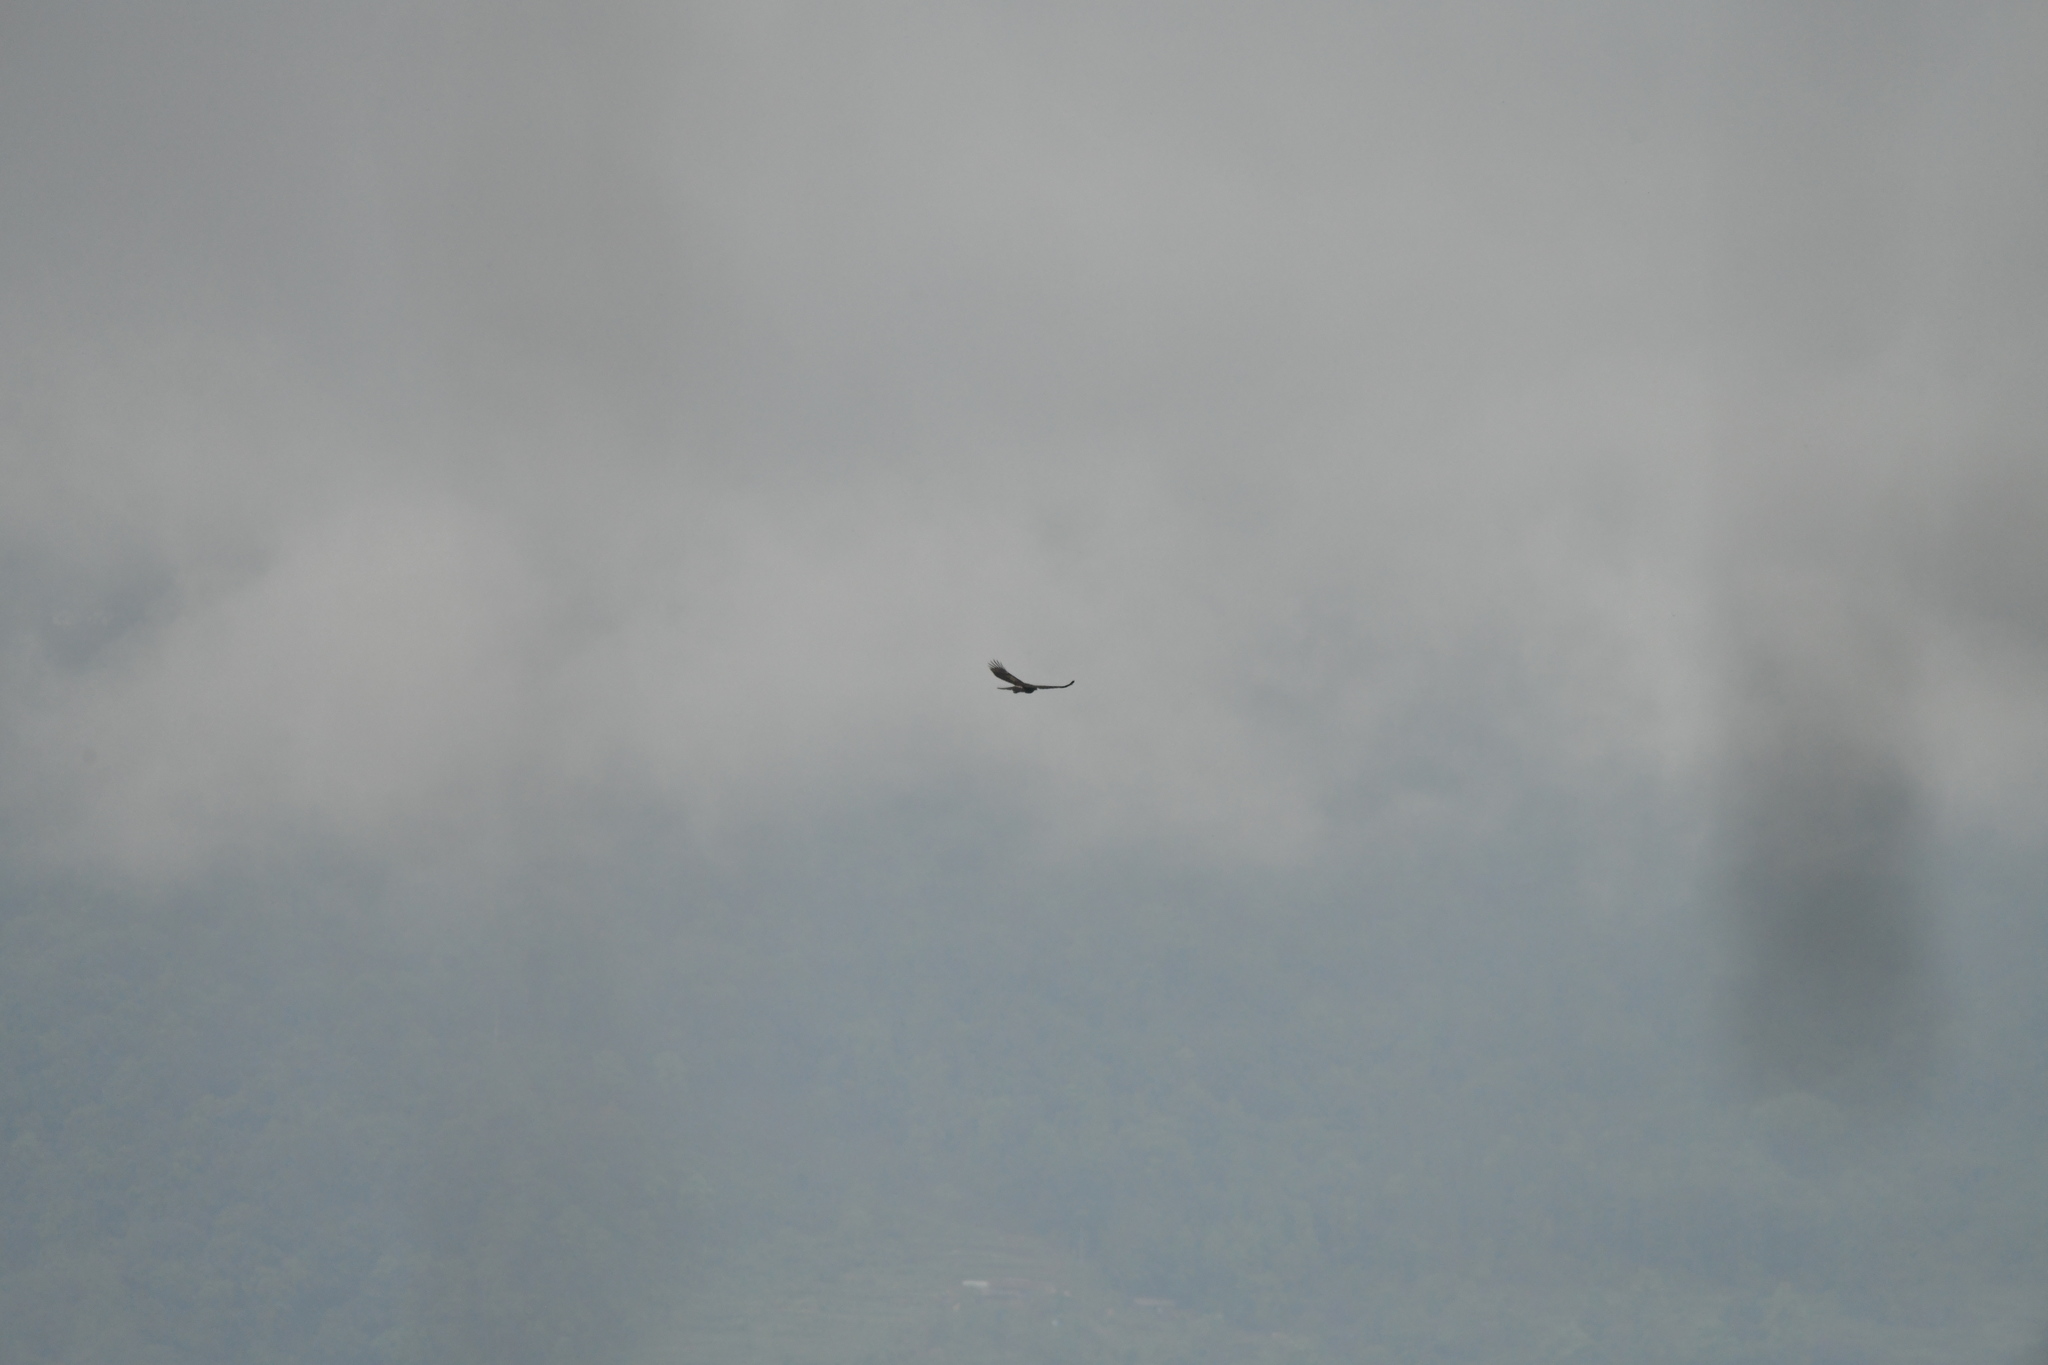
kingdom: Animalia
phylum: Chordata
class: Aves
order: Accipitriformes
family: Accipitridae
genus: Spilornis
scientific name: Spilornis cheela
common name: Crested serpent eagle
